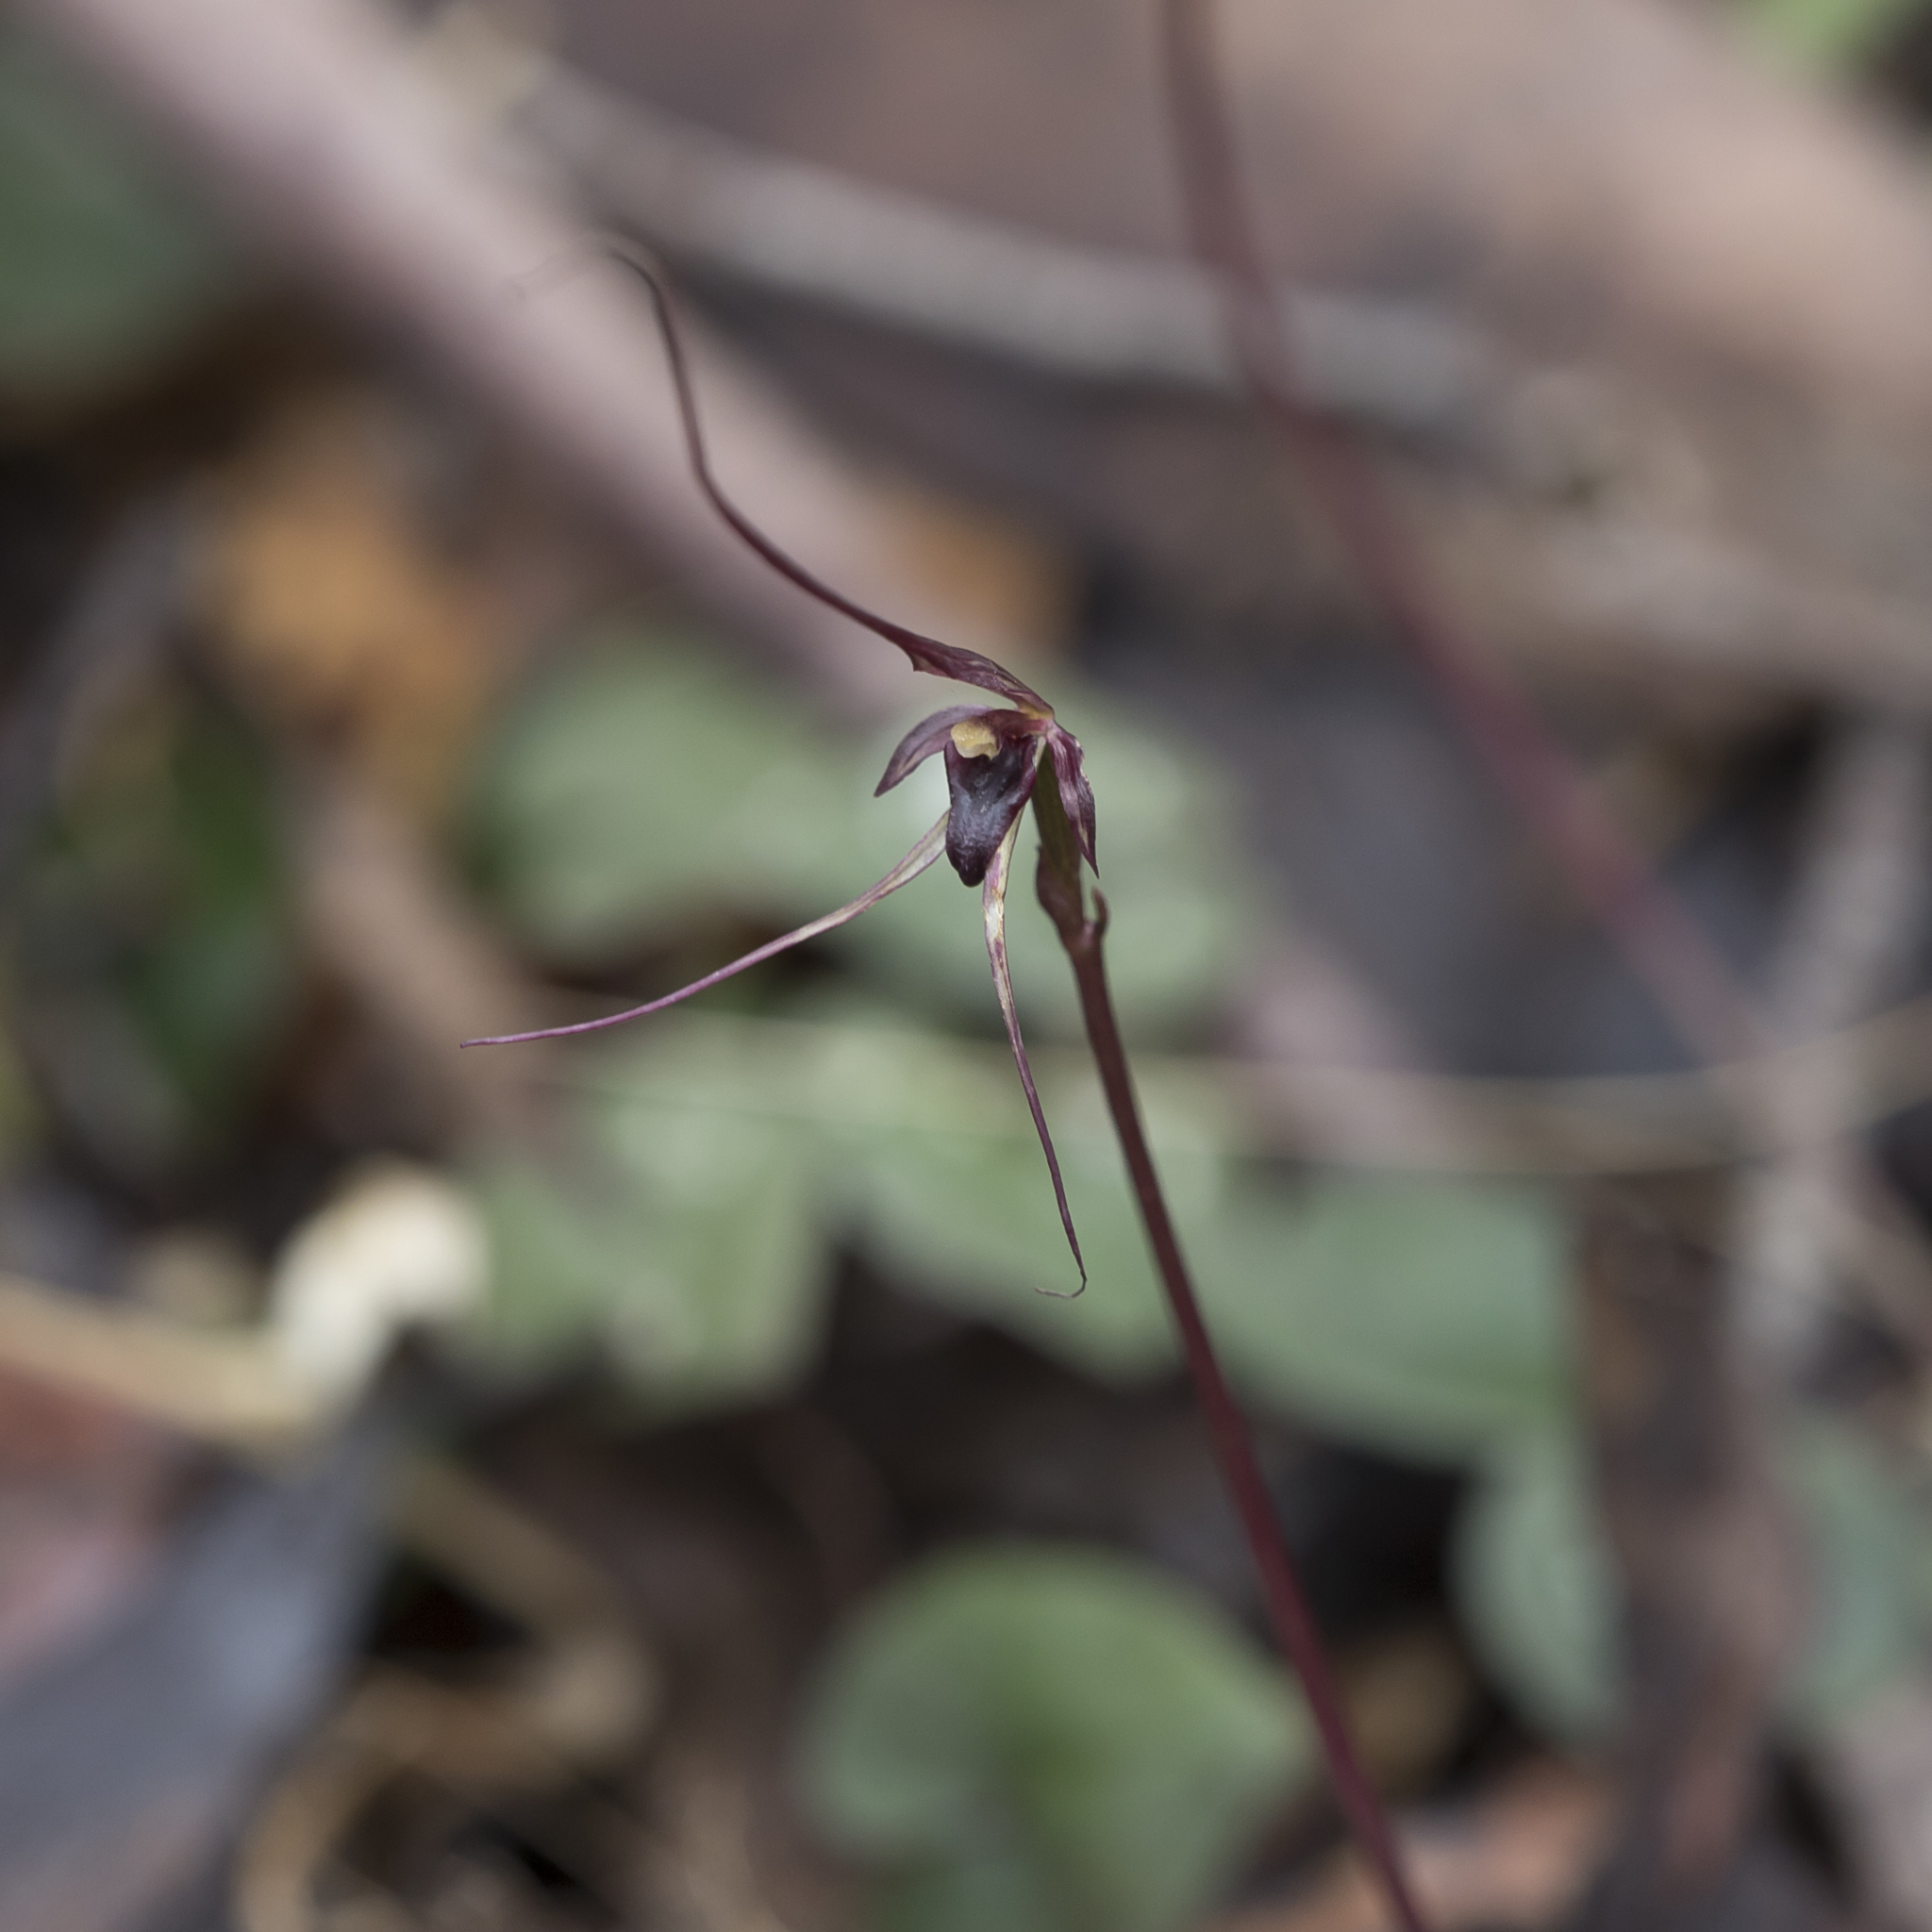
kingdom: Plantae
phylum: Tracheophyta
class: Liliopsida
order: Asparagales
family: Orchidaceae
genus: Acianthus
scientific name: Acianthus caudatus
